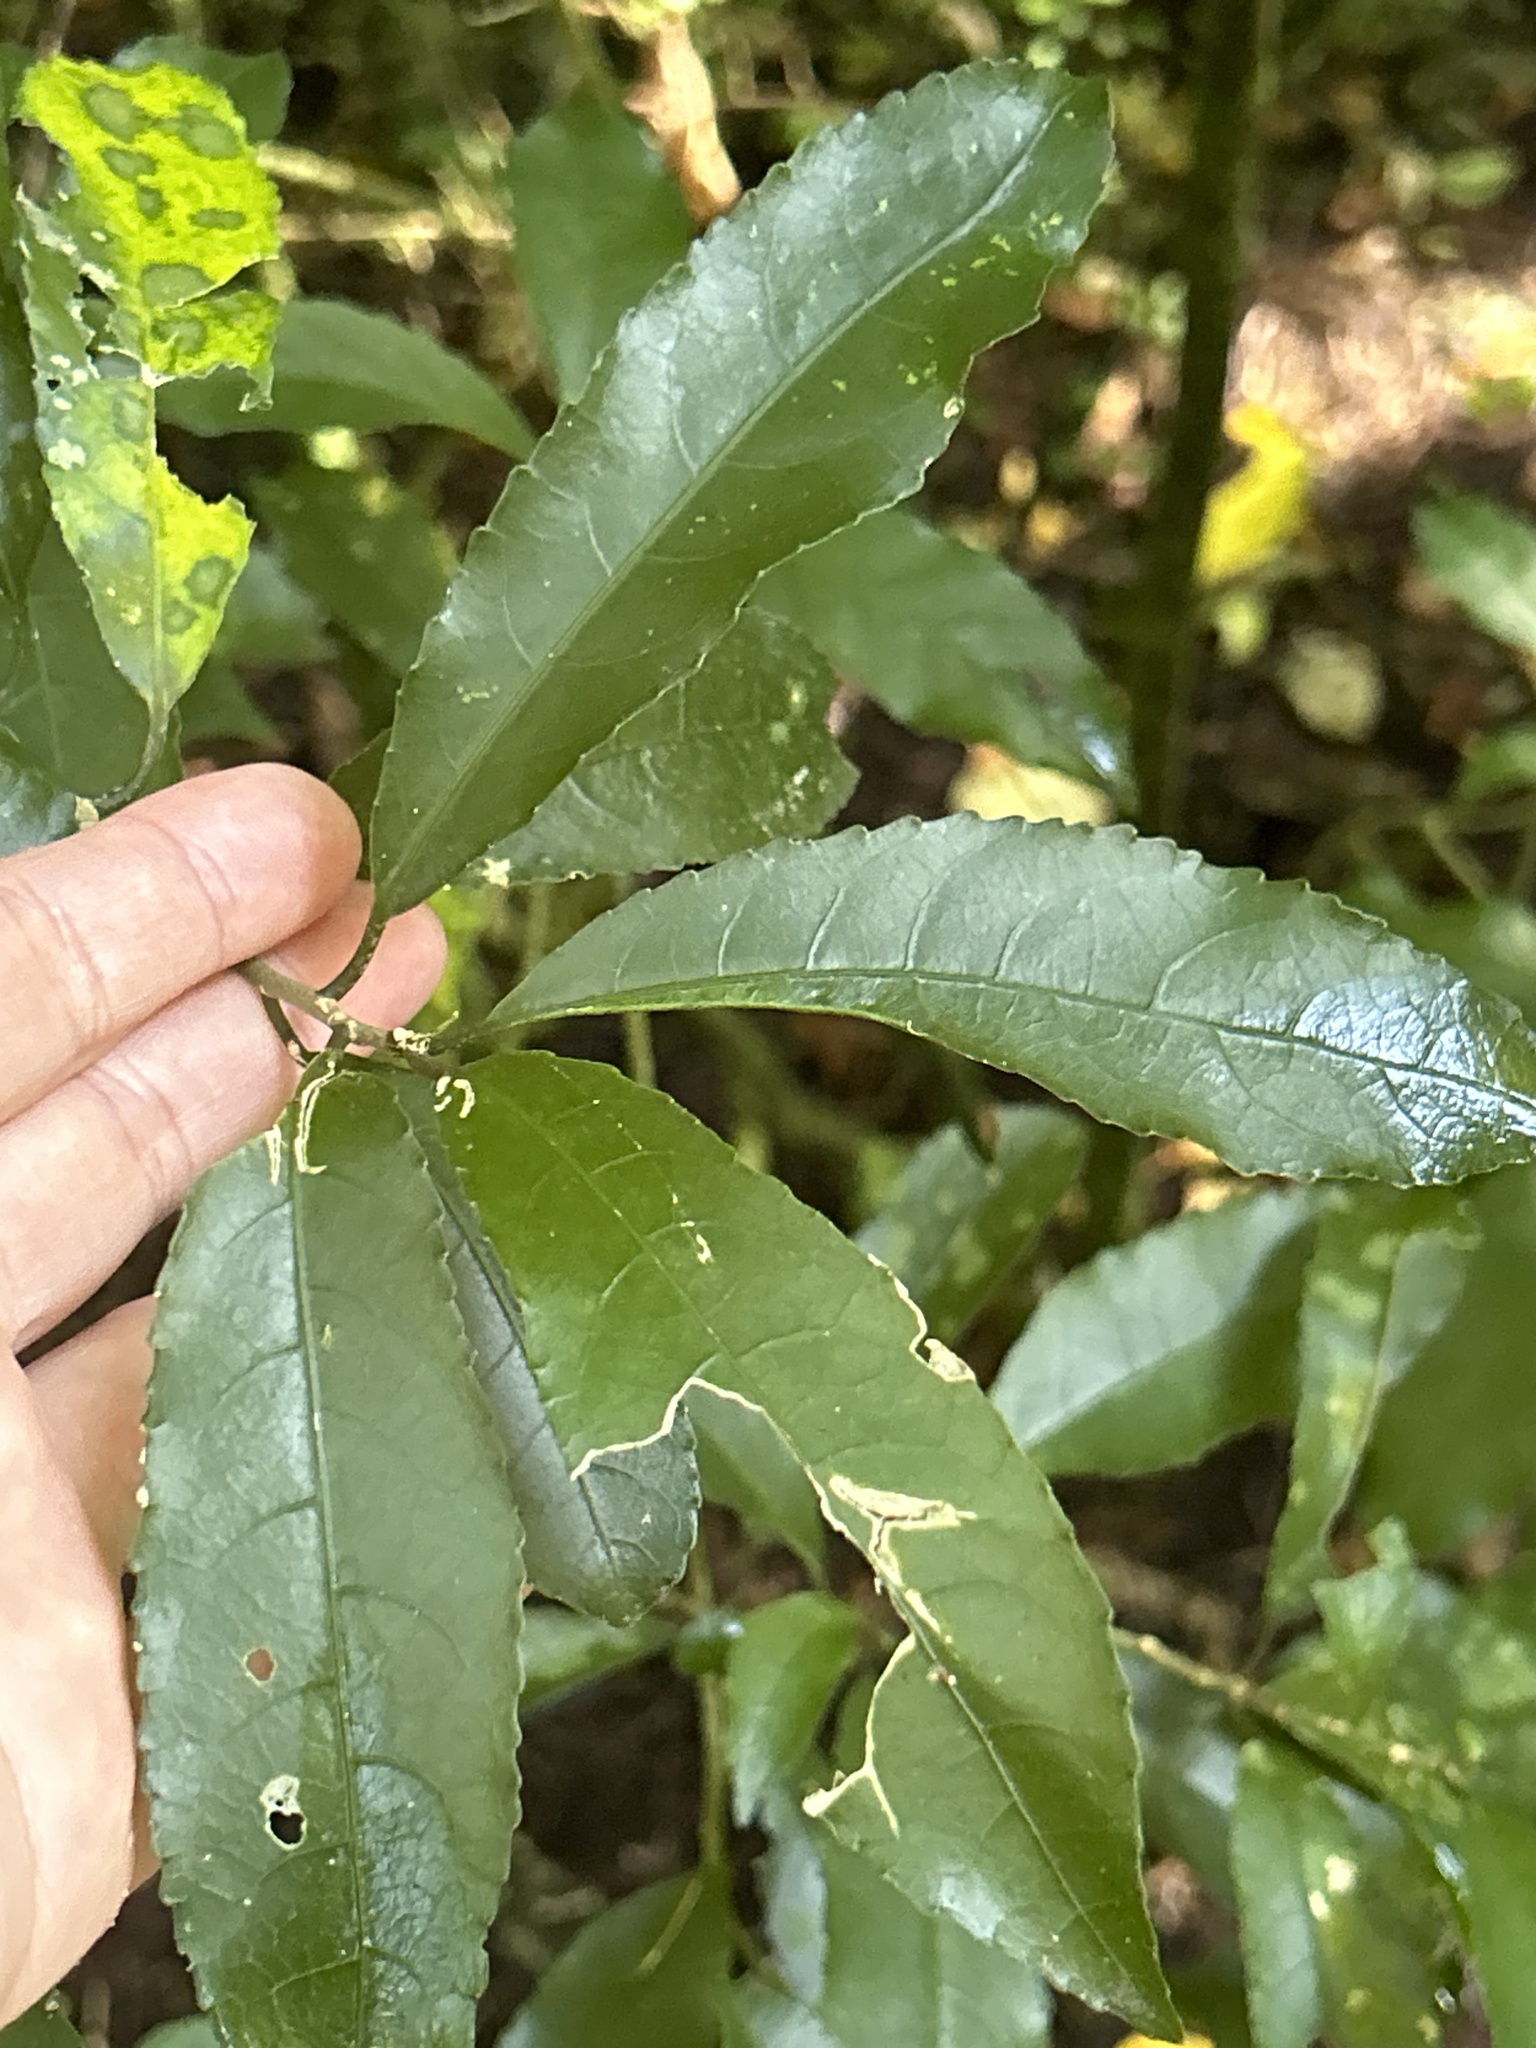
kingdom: Plantae
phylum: Tracheophyta
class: Magnoliopsida
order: Malpighiales
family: Violaceae
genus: Melicytus
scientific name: Melicytus ramiflorus
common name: Mahoe
